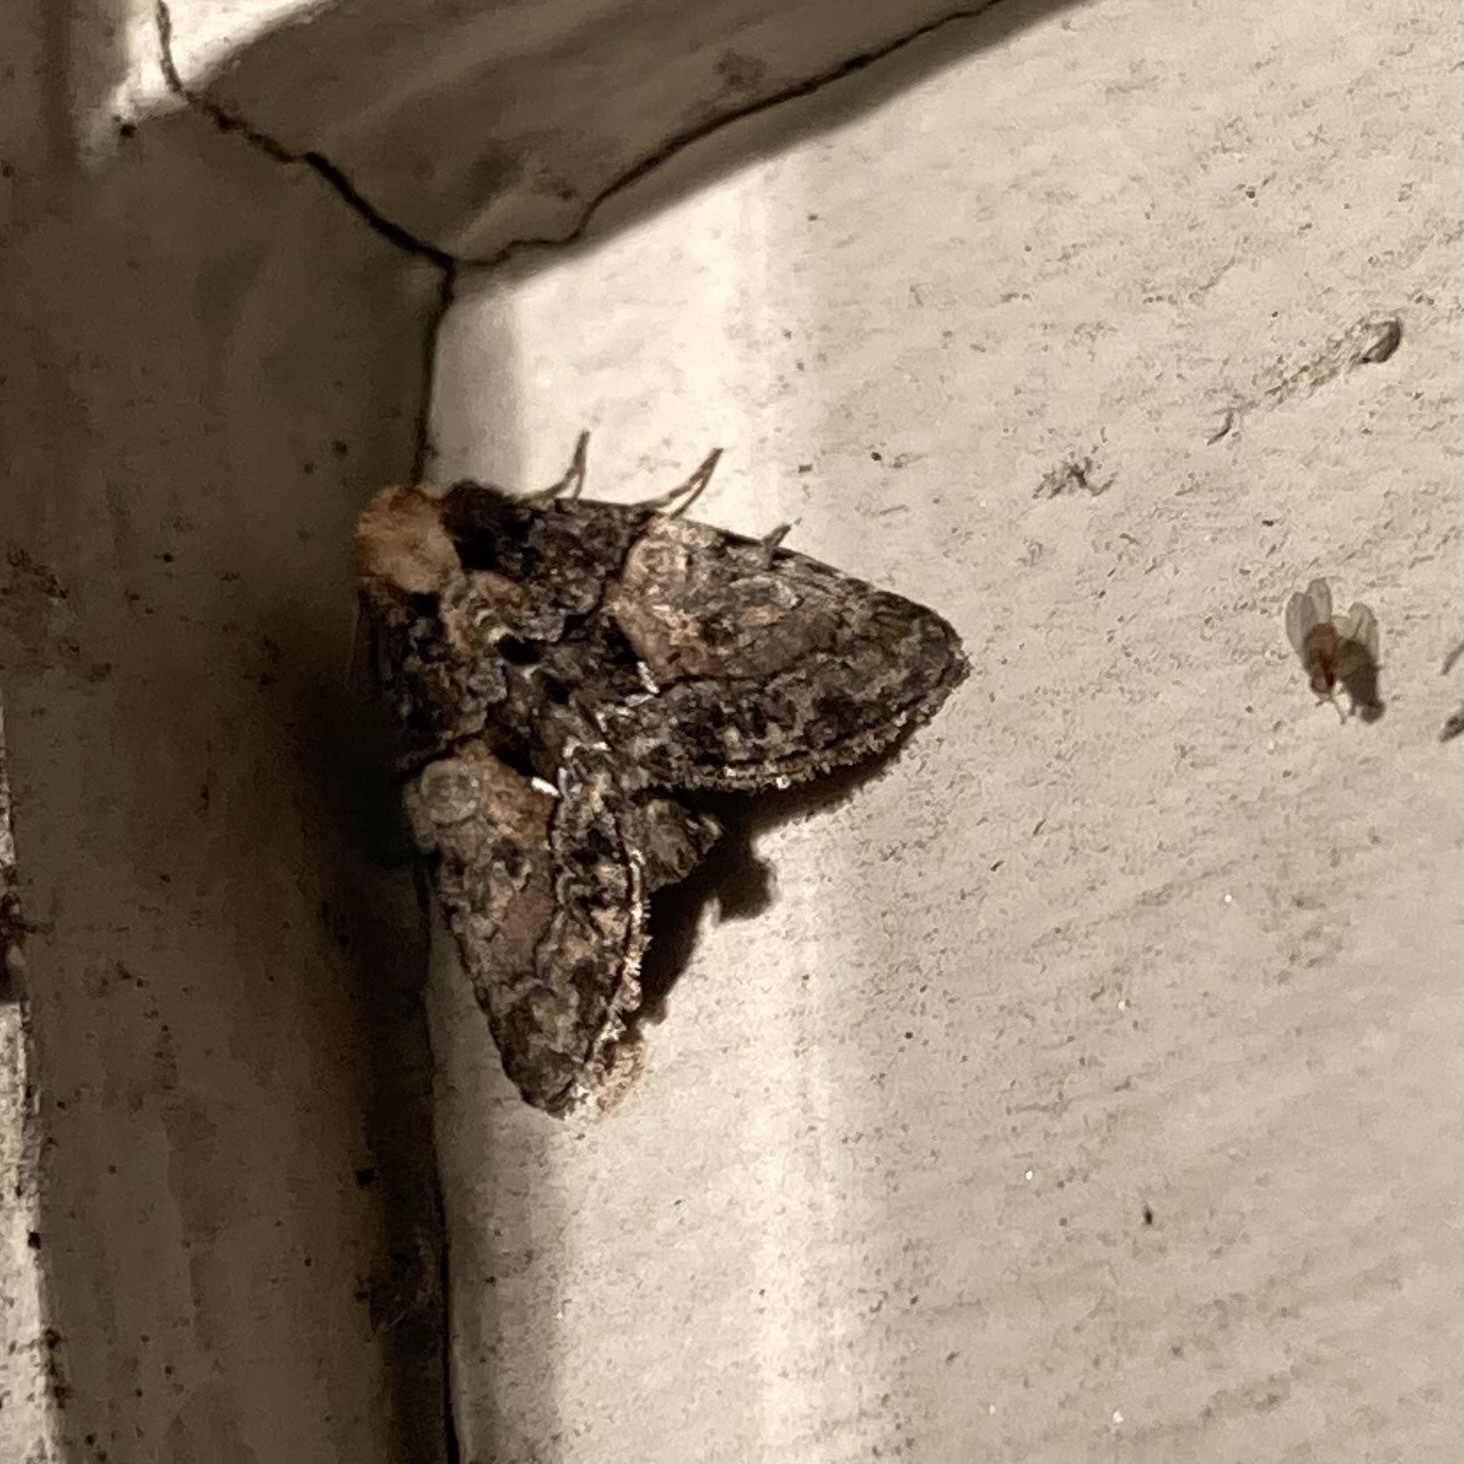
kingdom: Animalia
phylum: Arthropoda
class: Insecta
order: Lepidoptera
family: Noctuidae
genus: Chytonix
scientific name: Chytonix palliatricula
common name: Cloaked marvel
